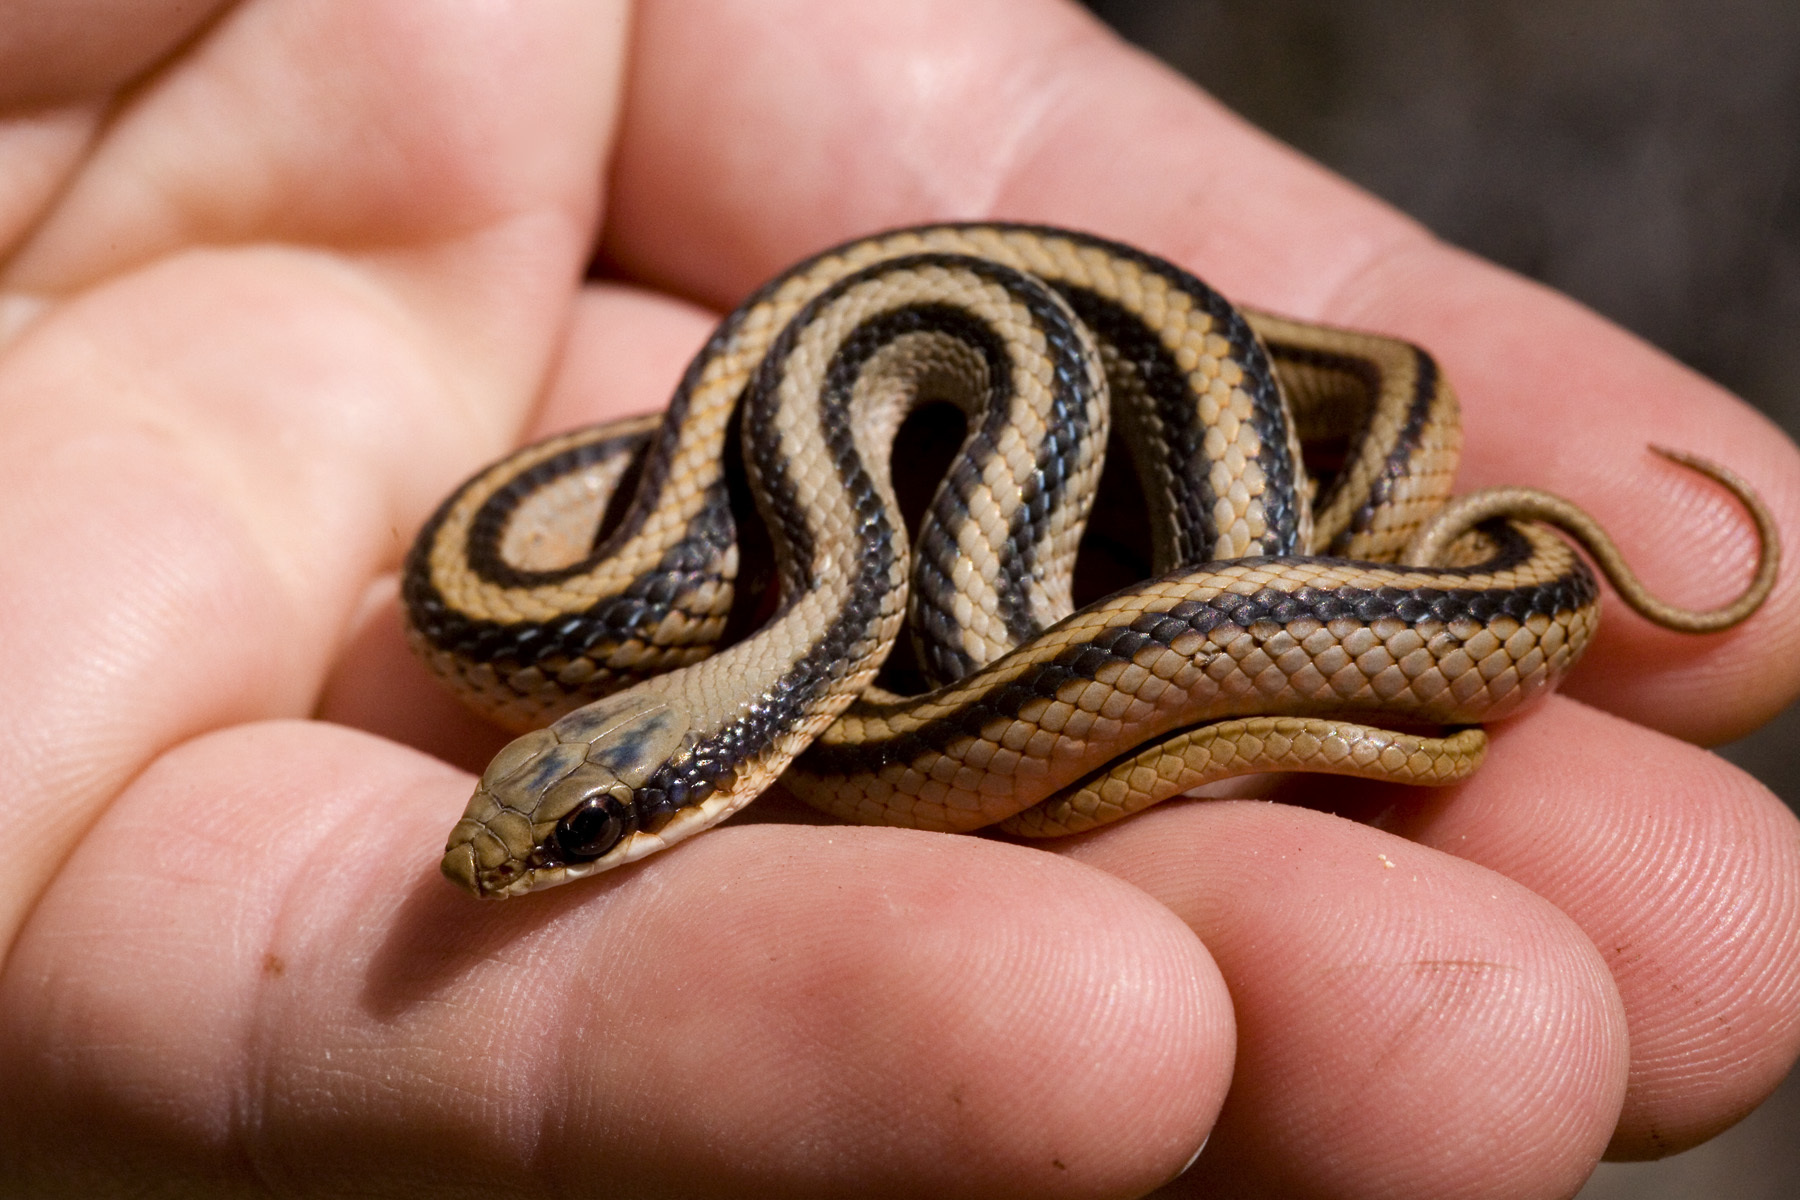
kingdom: Animalia
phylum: Chordata
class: Squamata
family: Colubridae
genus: Salvadora
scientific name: Salvadora grahamiae
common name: Mountain patchnose snake
